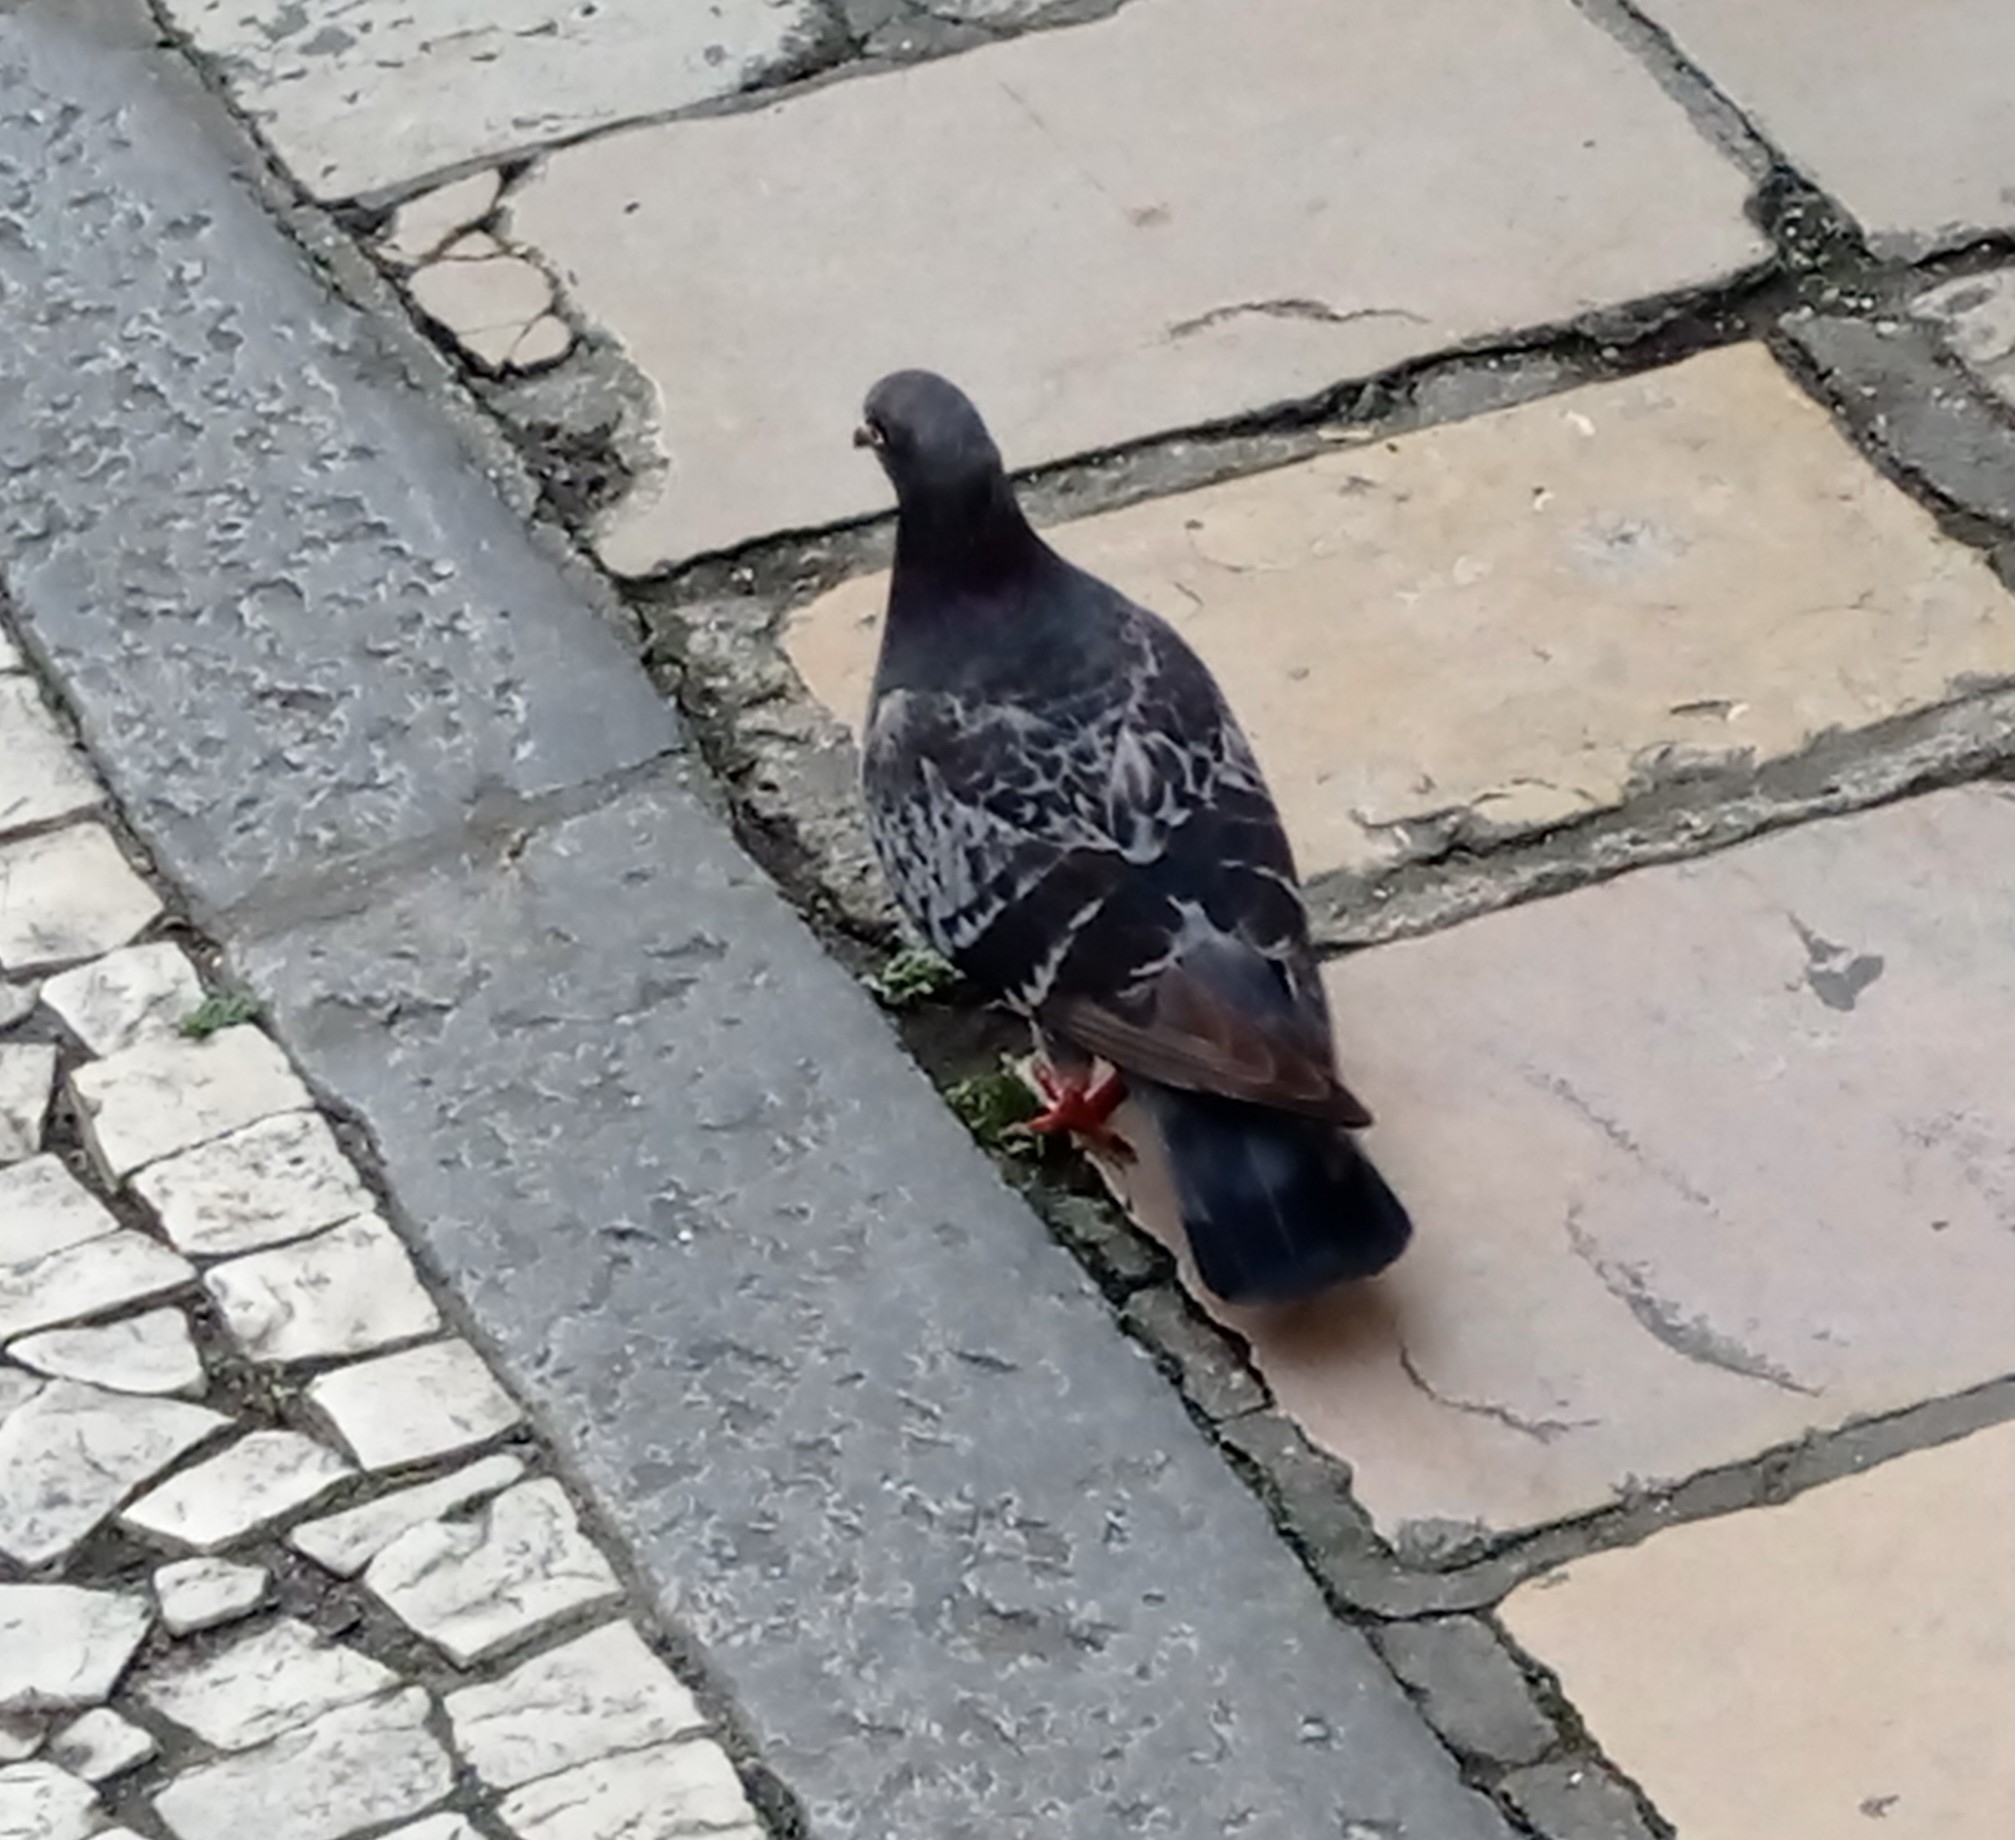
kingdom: Animalia
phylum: Chordata
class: Aves
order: Columbiformes
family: Columbidae
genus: Columba
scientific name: Columba livia
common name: Rock pigeon
